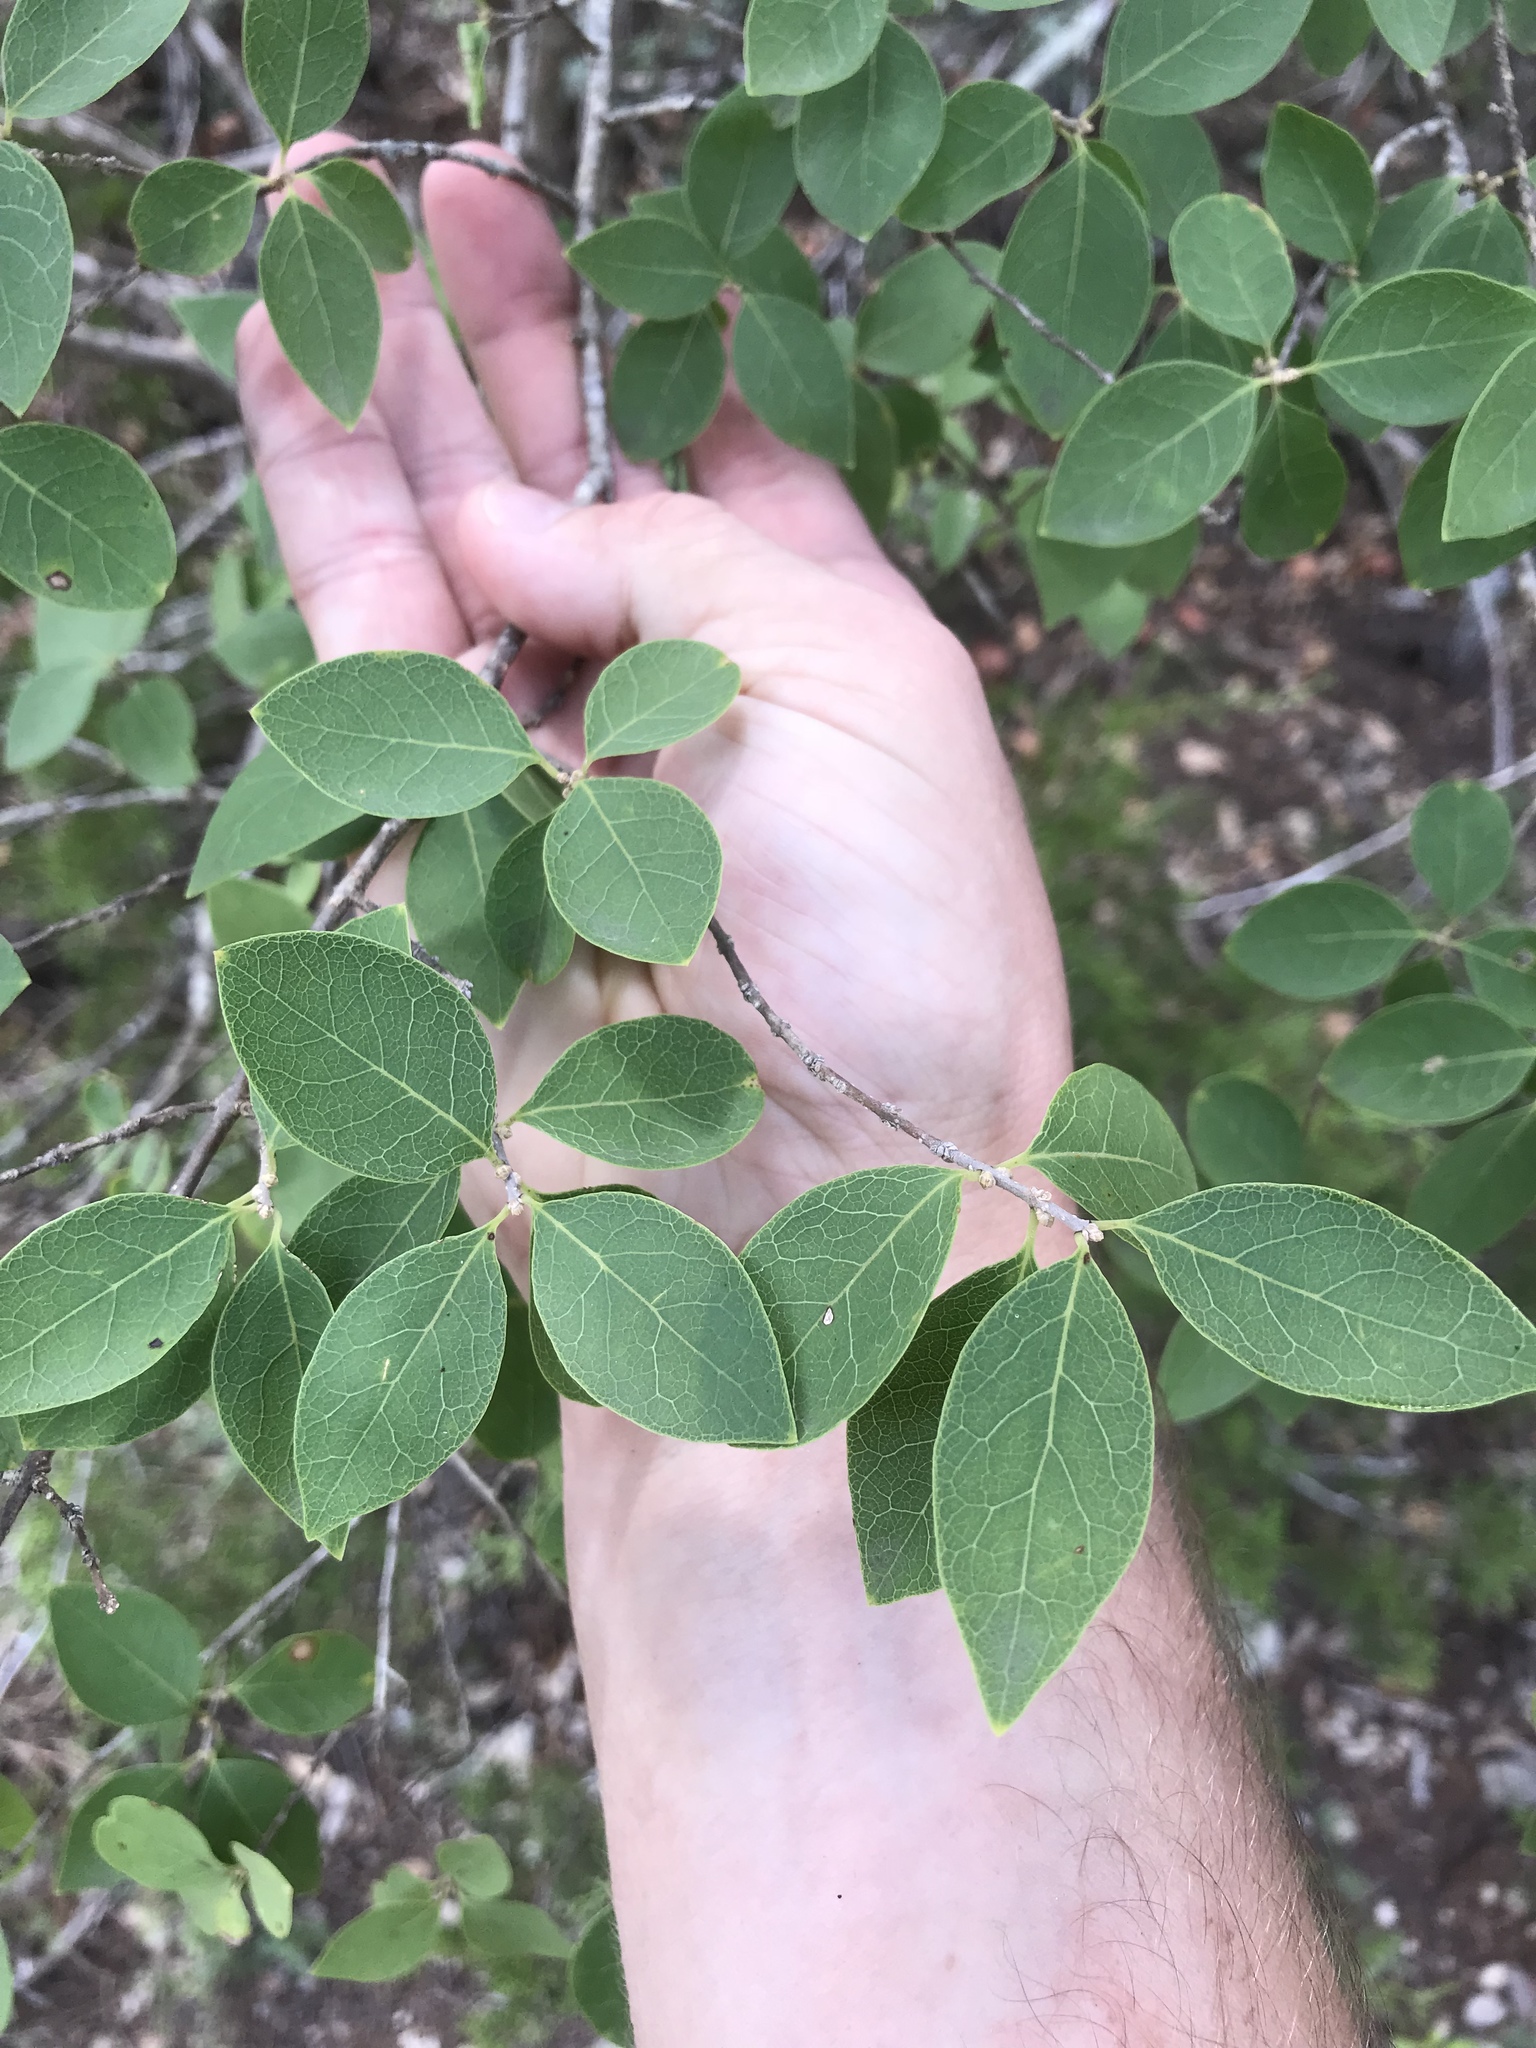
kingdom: Plantae
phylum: Tracheophyta
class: Magnoliopsida
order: Lamiales
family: Oleaceae
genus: Forestiera
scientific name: Forestiera reticulata
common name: Netleaf swamp-privet
